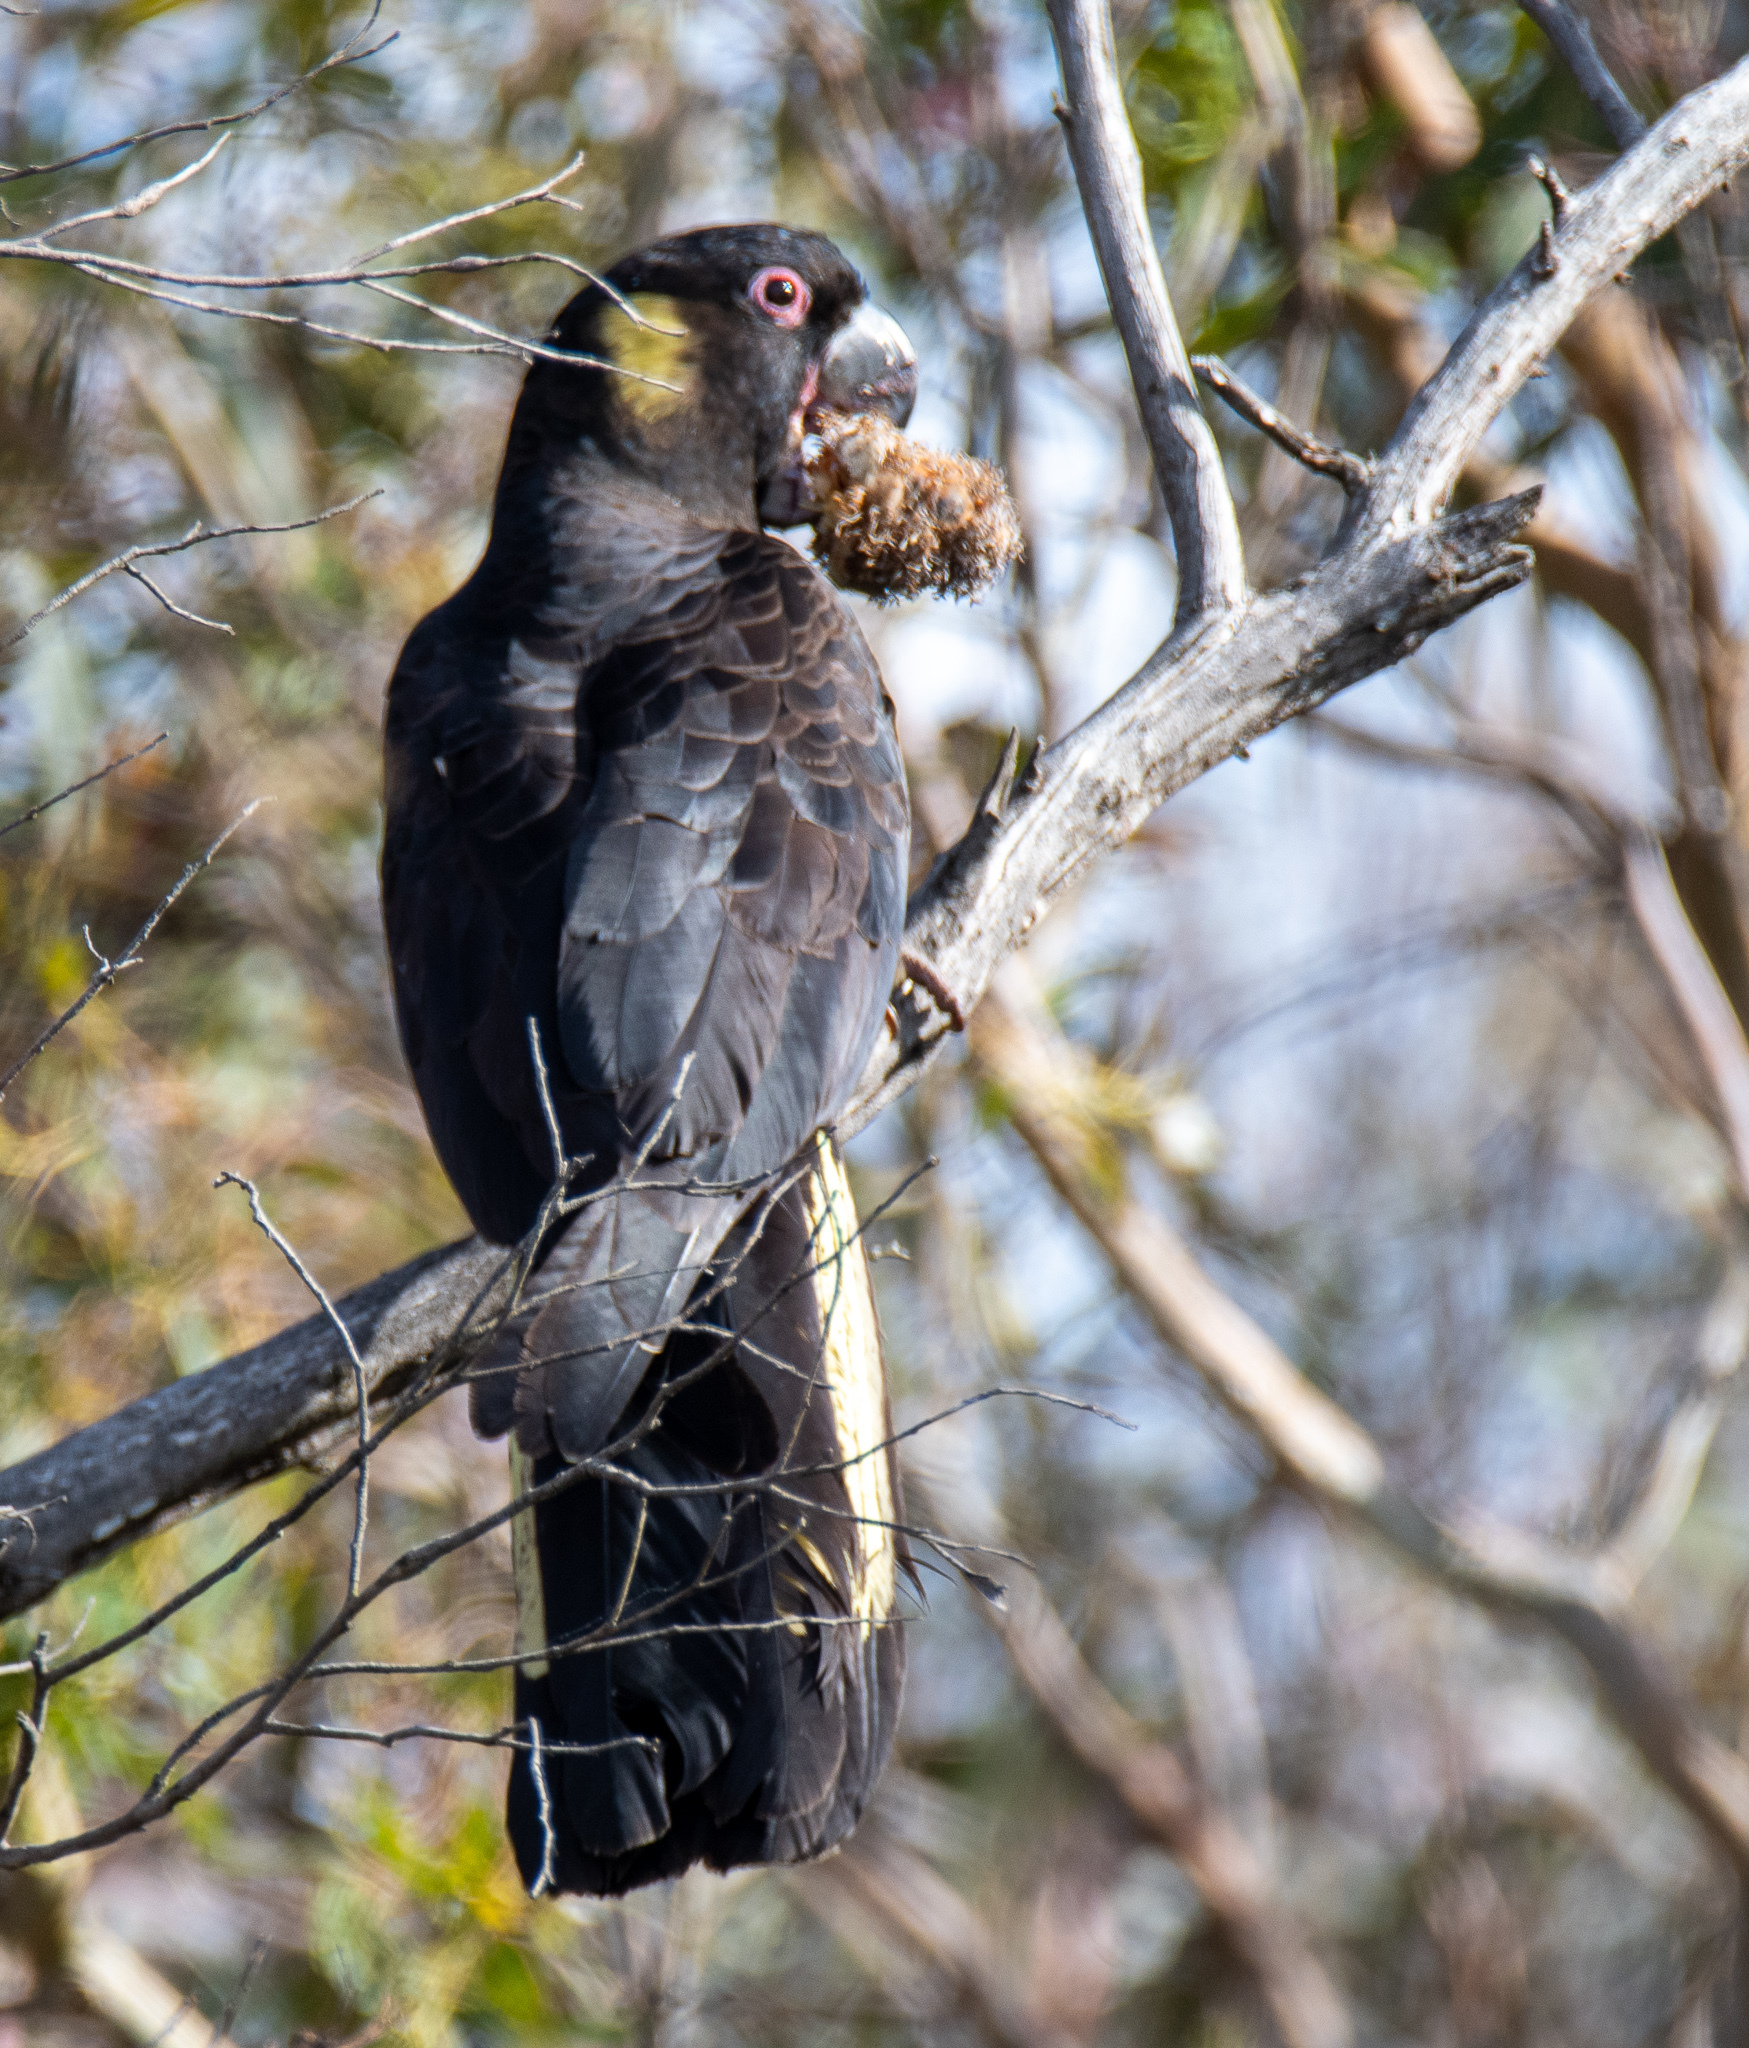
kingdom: Animalia
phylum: Chordata
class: Aves
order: Psittaciformes
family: Cacatuidae
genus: Zanda
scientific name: Zanda funerea
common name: Yellow-tailed black-cockatoo
